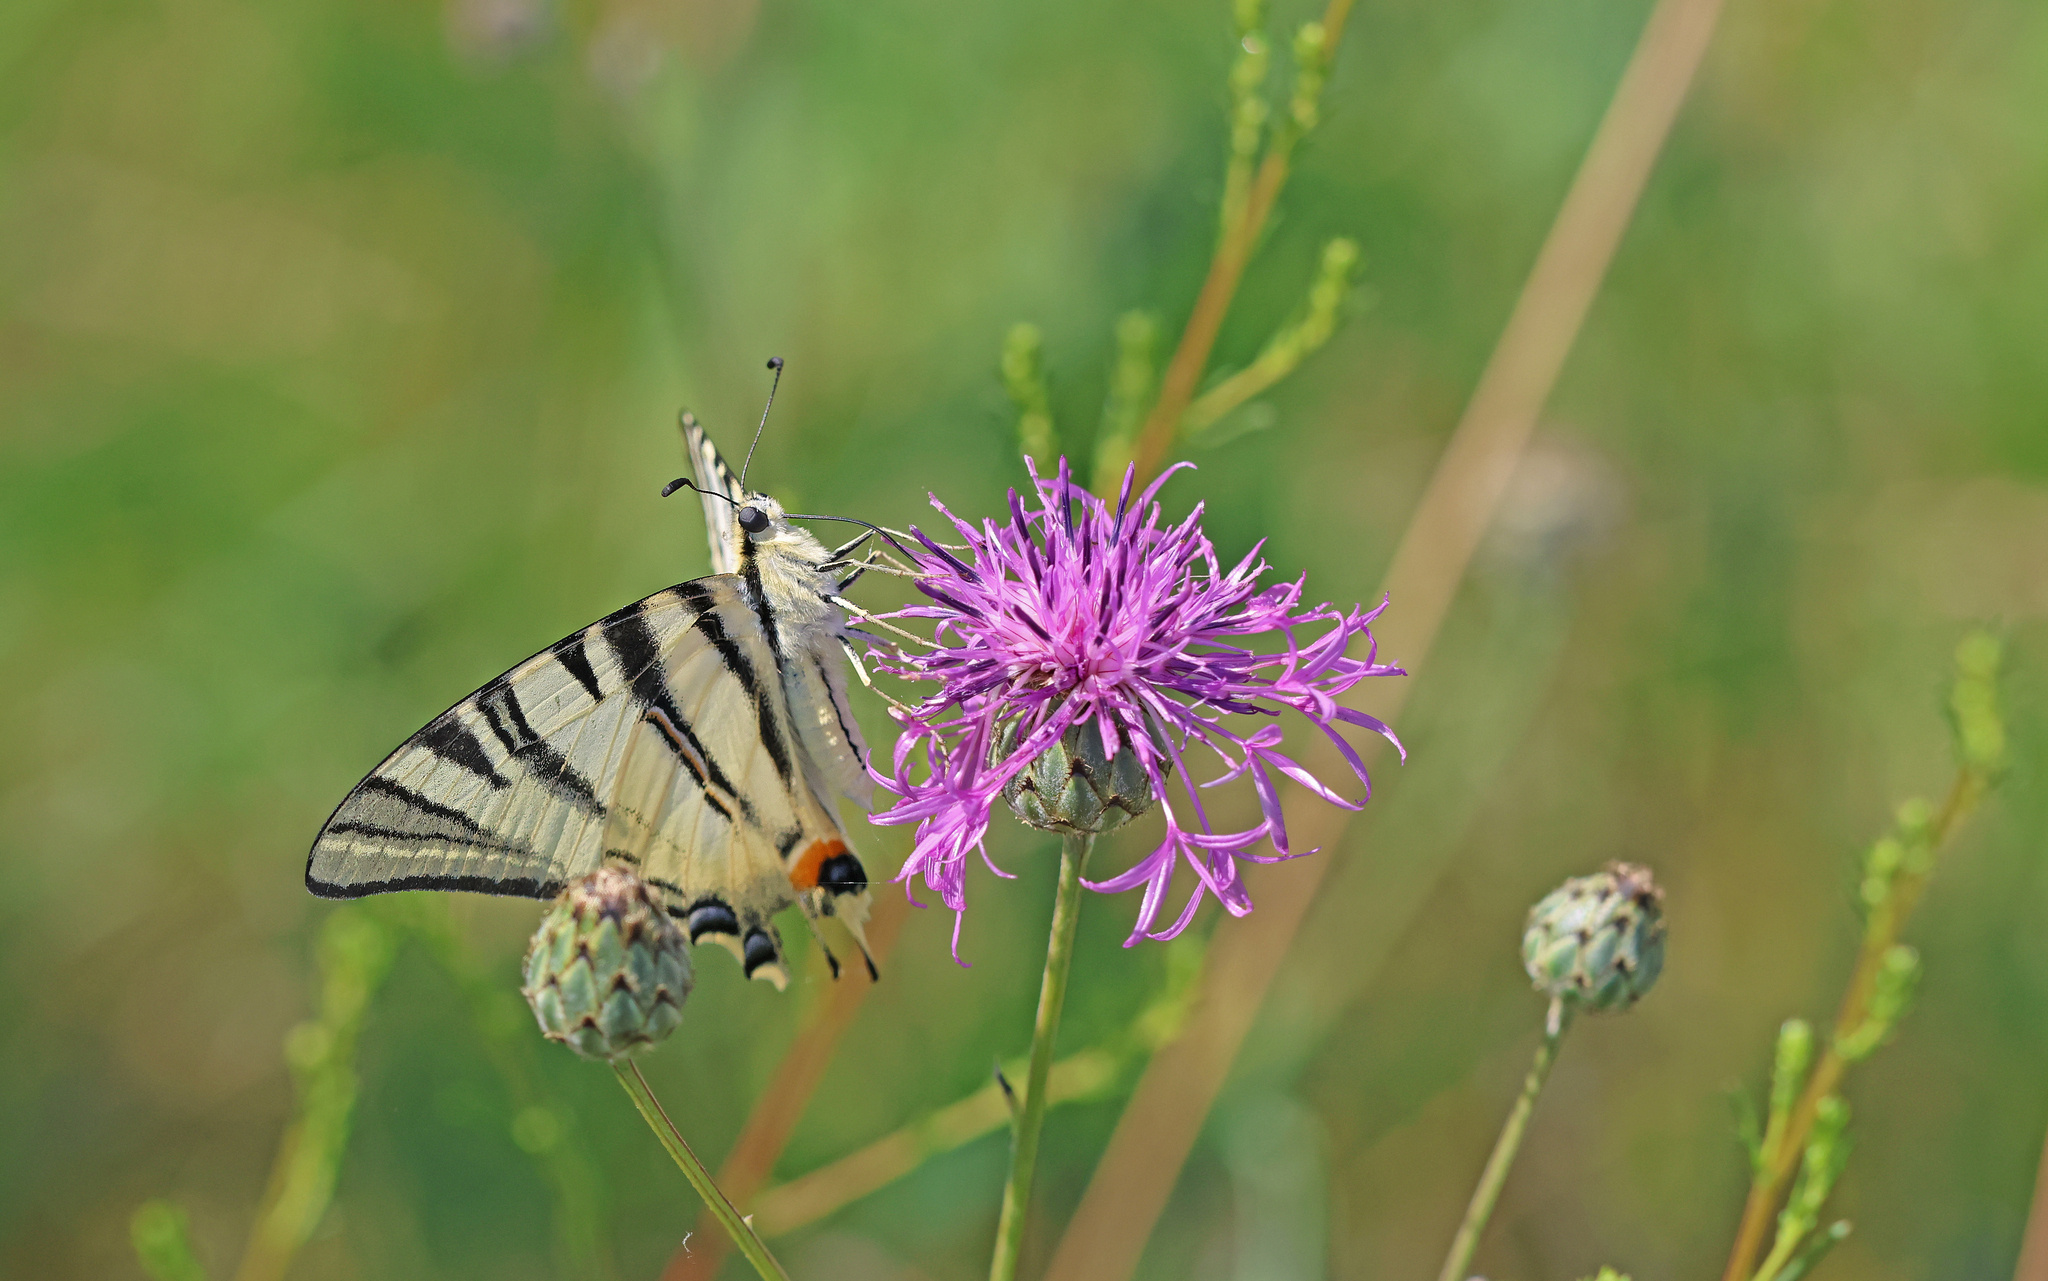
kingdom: Animalia
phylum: Arthropoda
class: Insecta
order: Lepidoptera
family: Papilionidae
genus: Iphiclides
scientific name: Iphiclides podalirius
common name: Scarce swallowtail
